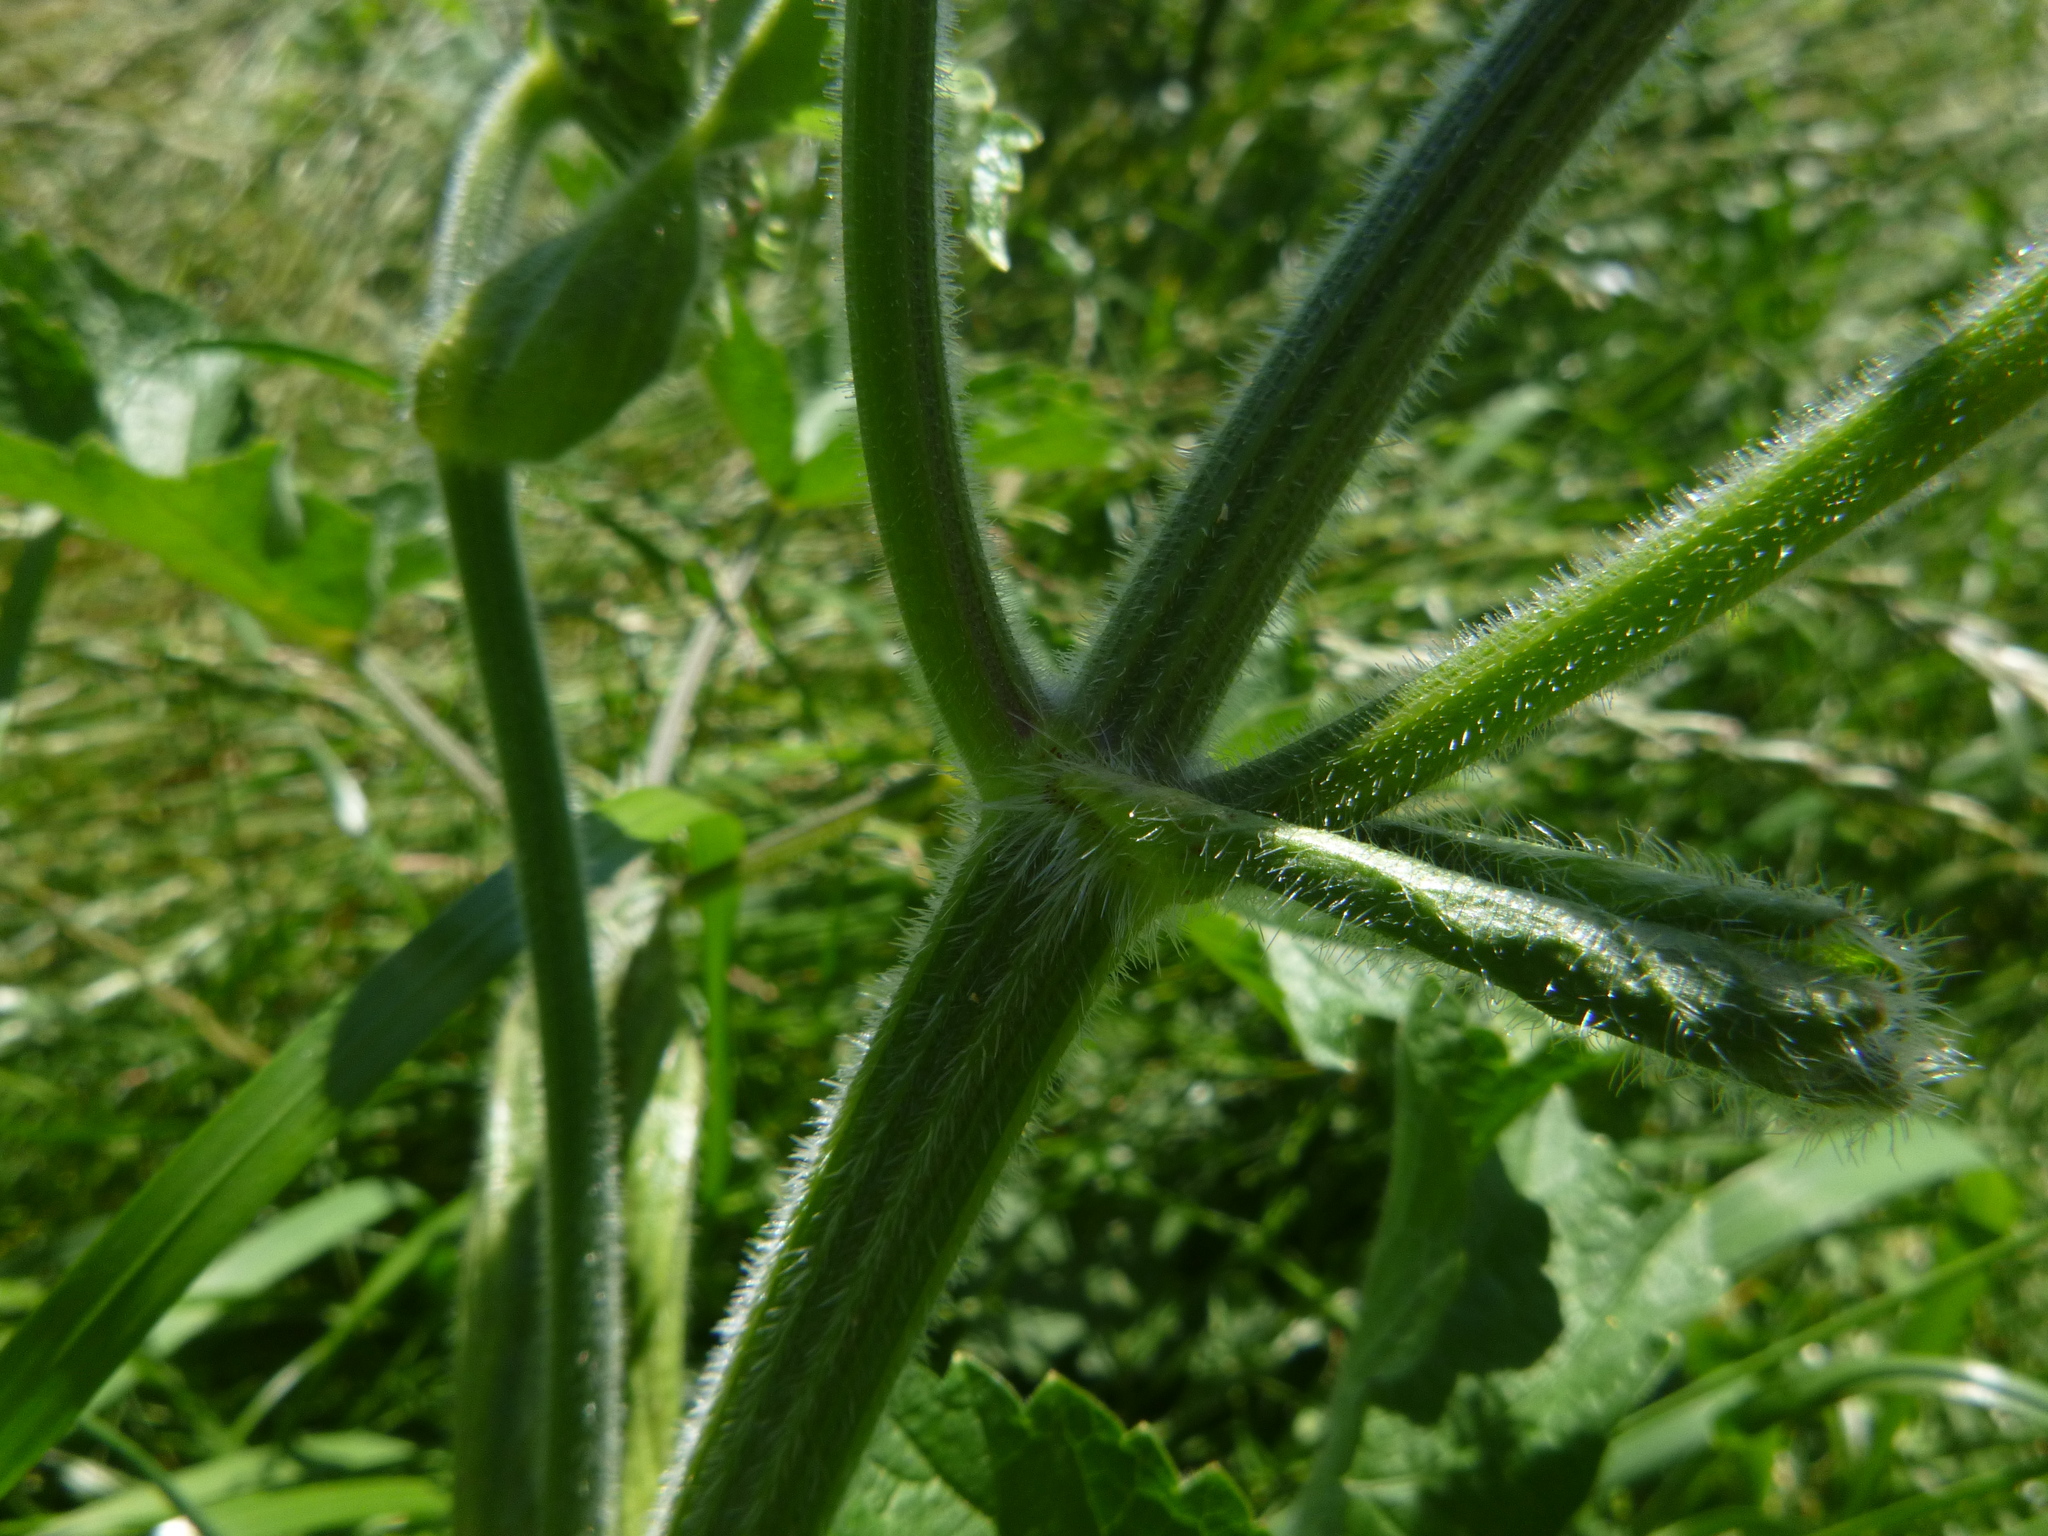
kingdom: Plantae
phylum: Tracheophyta
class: Magnoliopsida
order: Apiales
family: Apiaceae
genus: Heracleum
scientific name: Heracleum sphondylium
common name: Hogweed
